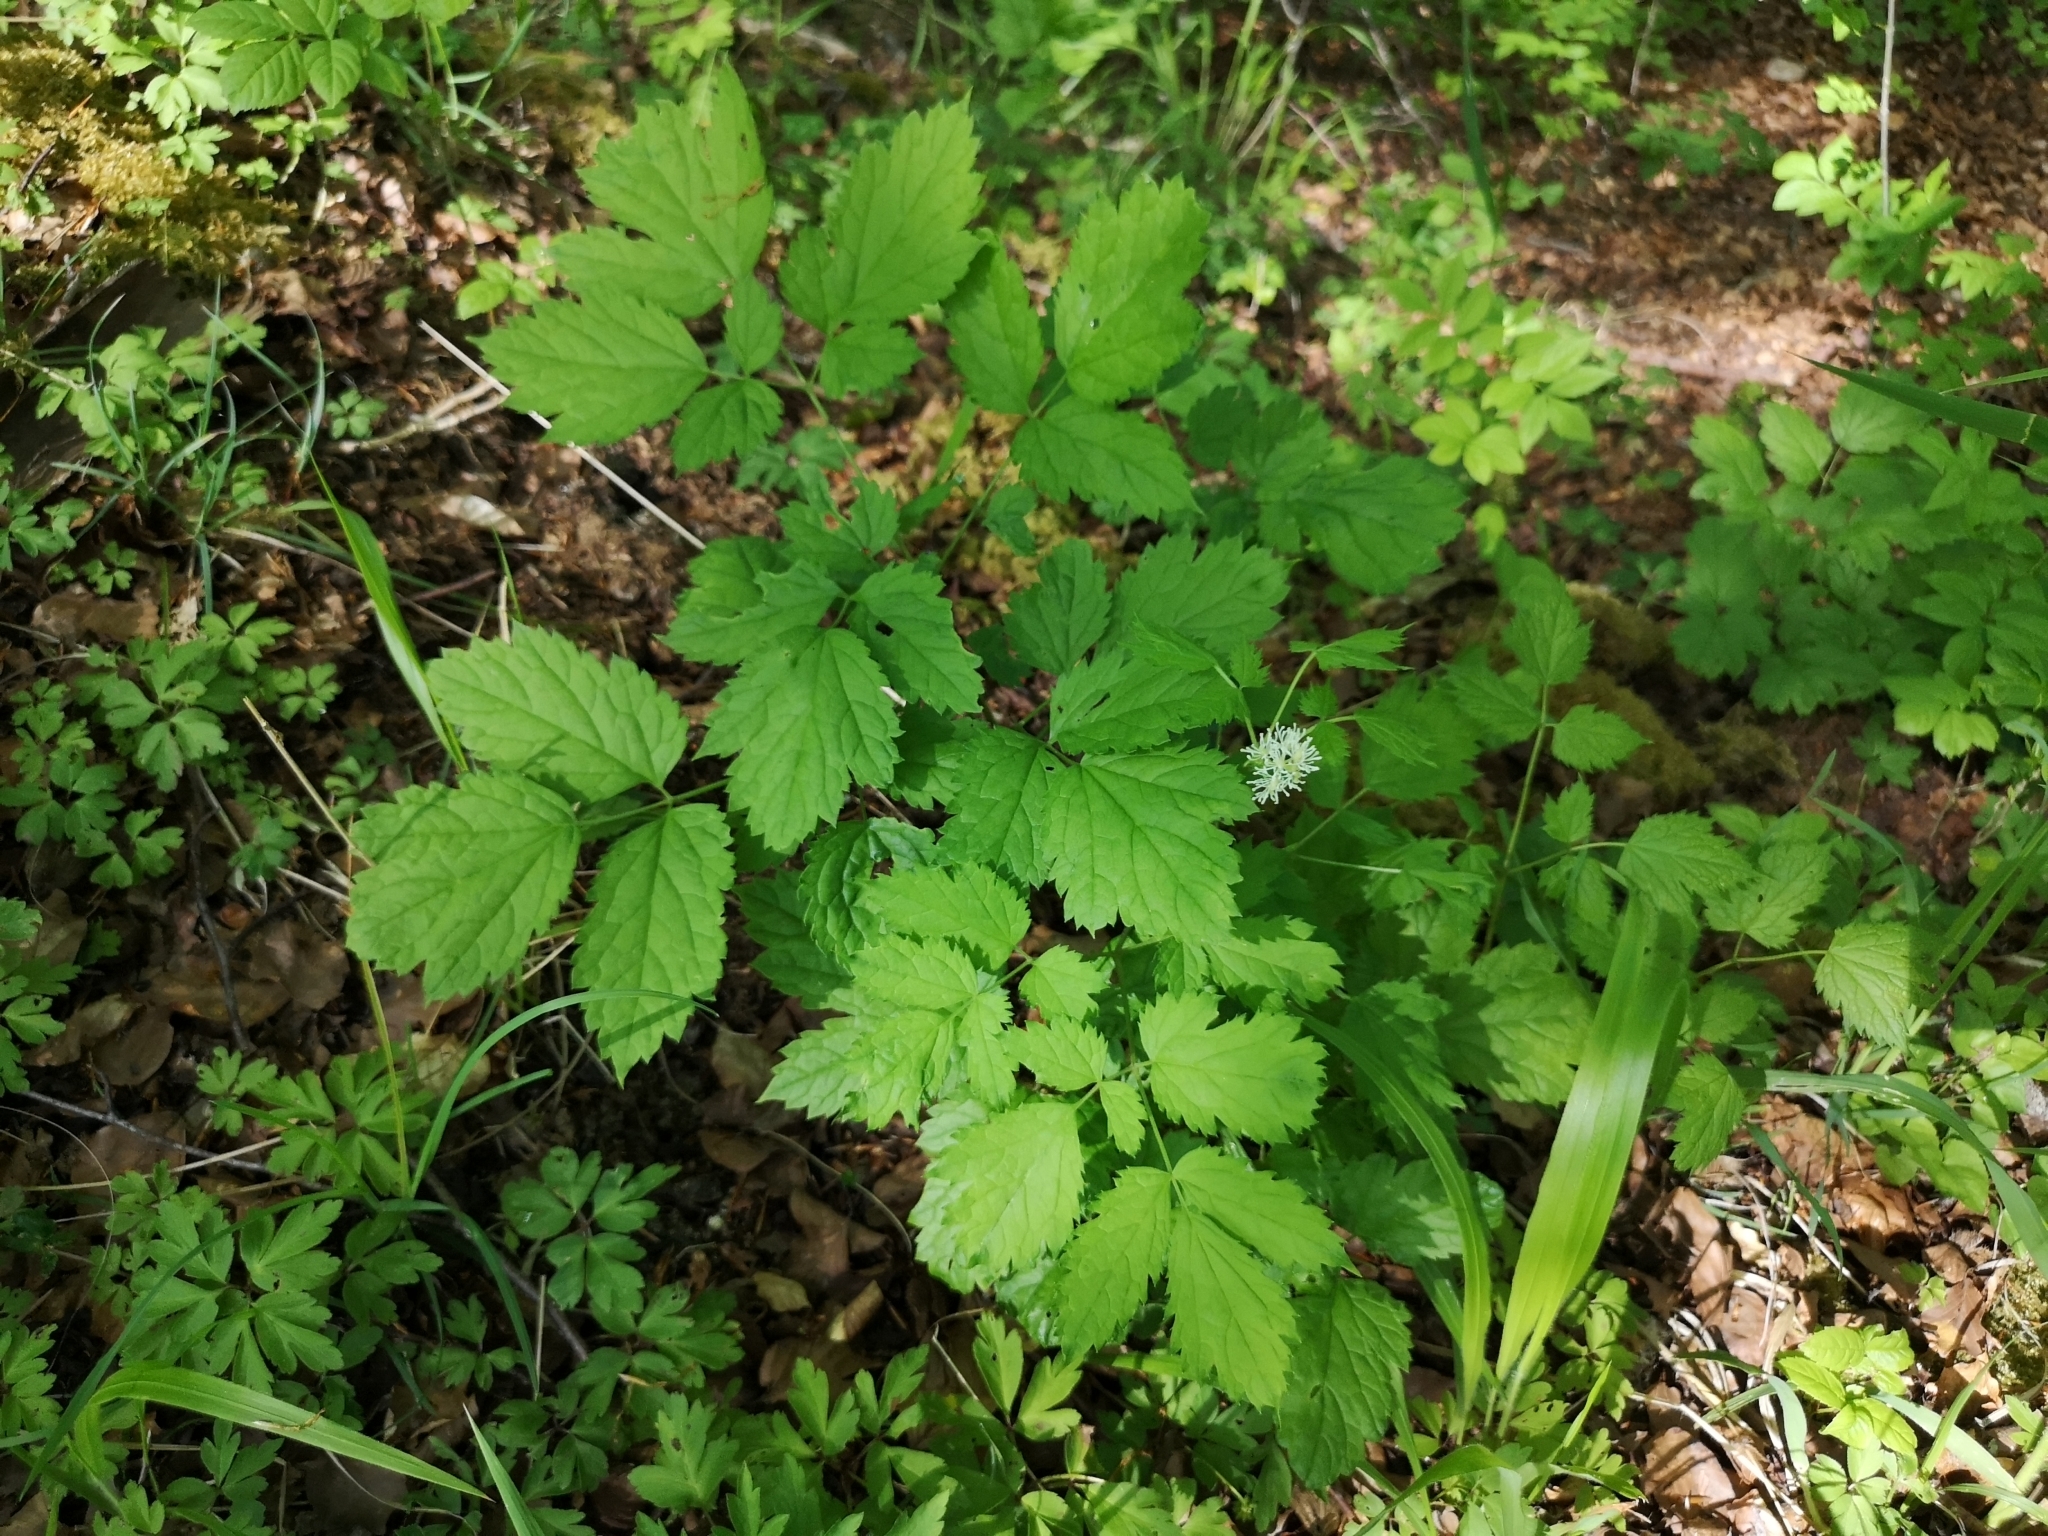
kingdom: Plantae
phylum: Tracheophyta
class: Magnoliopsida
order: Ranunculales
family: Ranunculaceae
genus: Actaea
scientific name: Actaea spicata
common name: Baneberry
